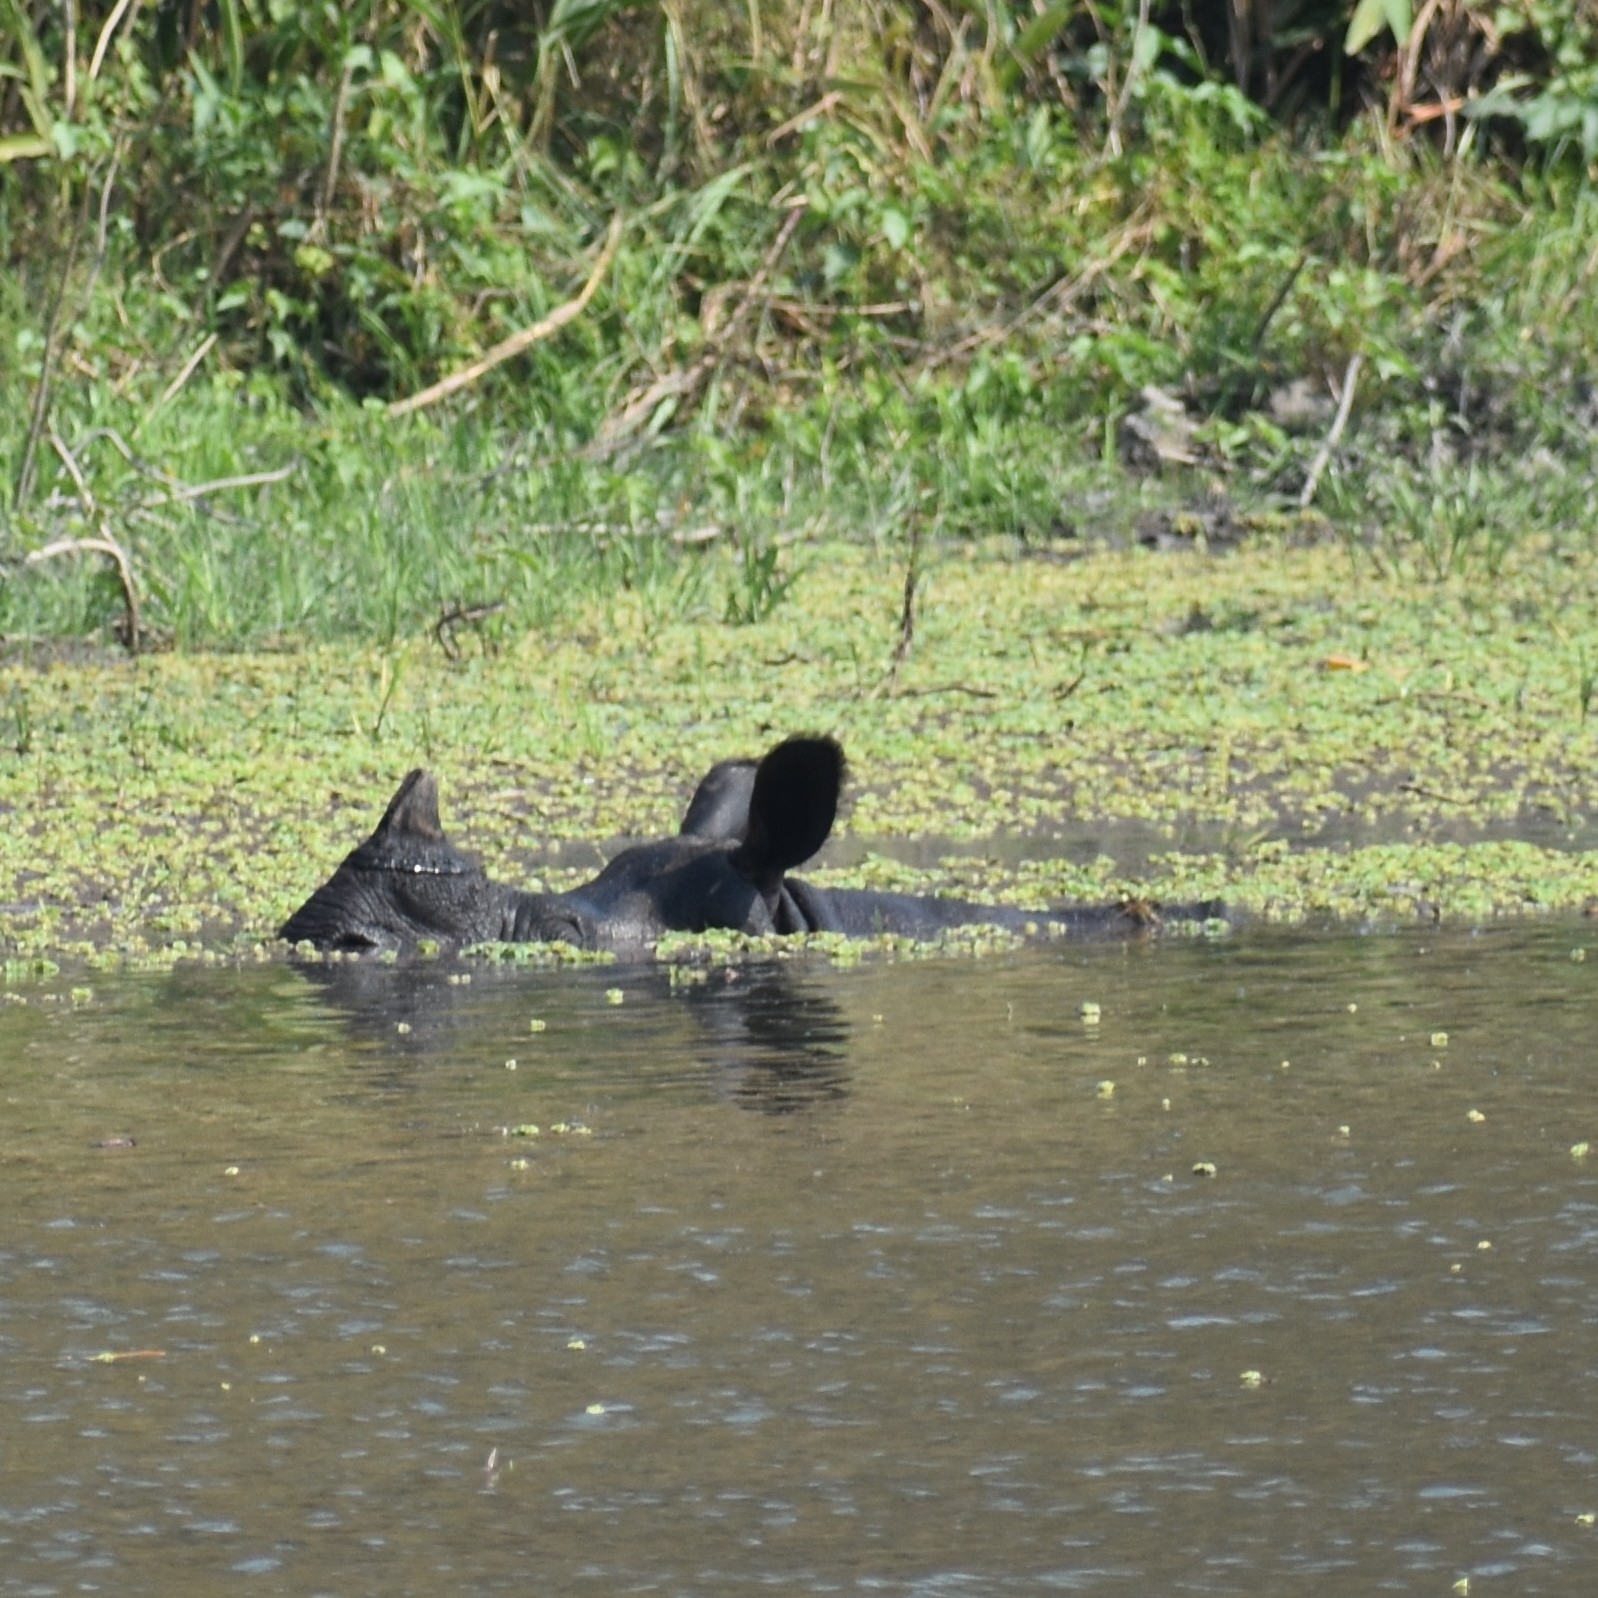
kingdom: Animalia
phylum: Chordata
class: Mammalia
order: Perissodactyla
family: Rhinocerotidae
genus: Rhinoceros
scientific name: Rhinoceros unicornis
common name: Indian rhinoceros
